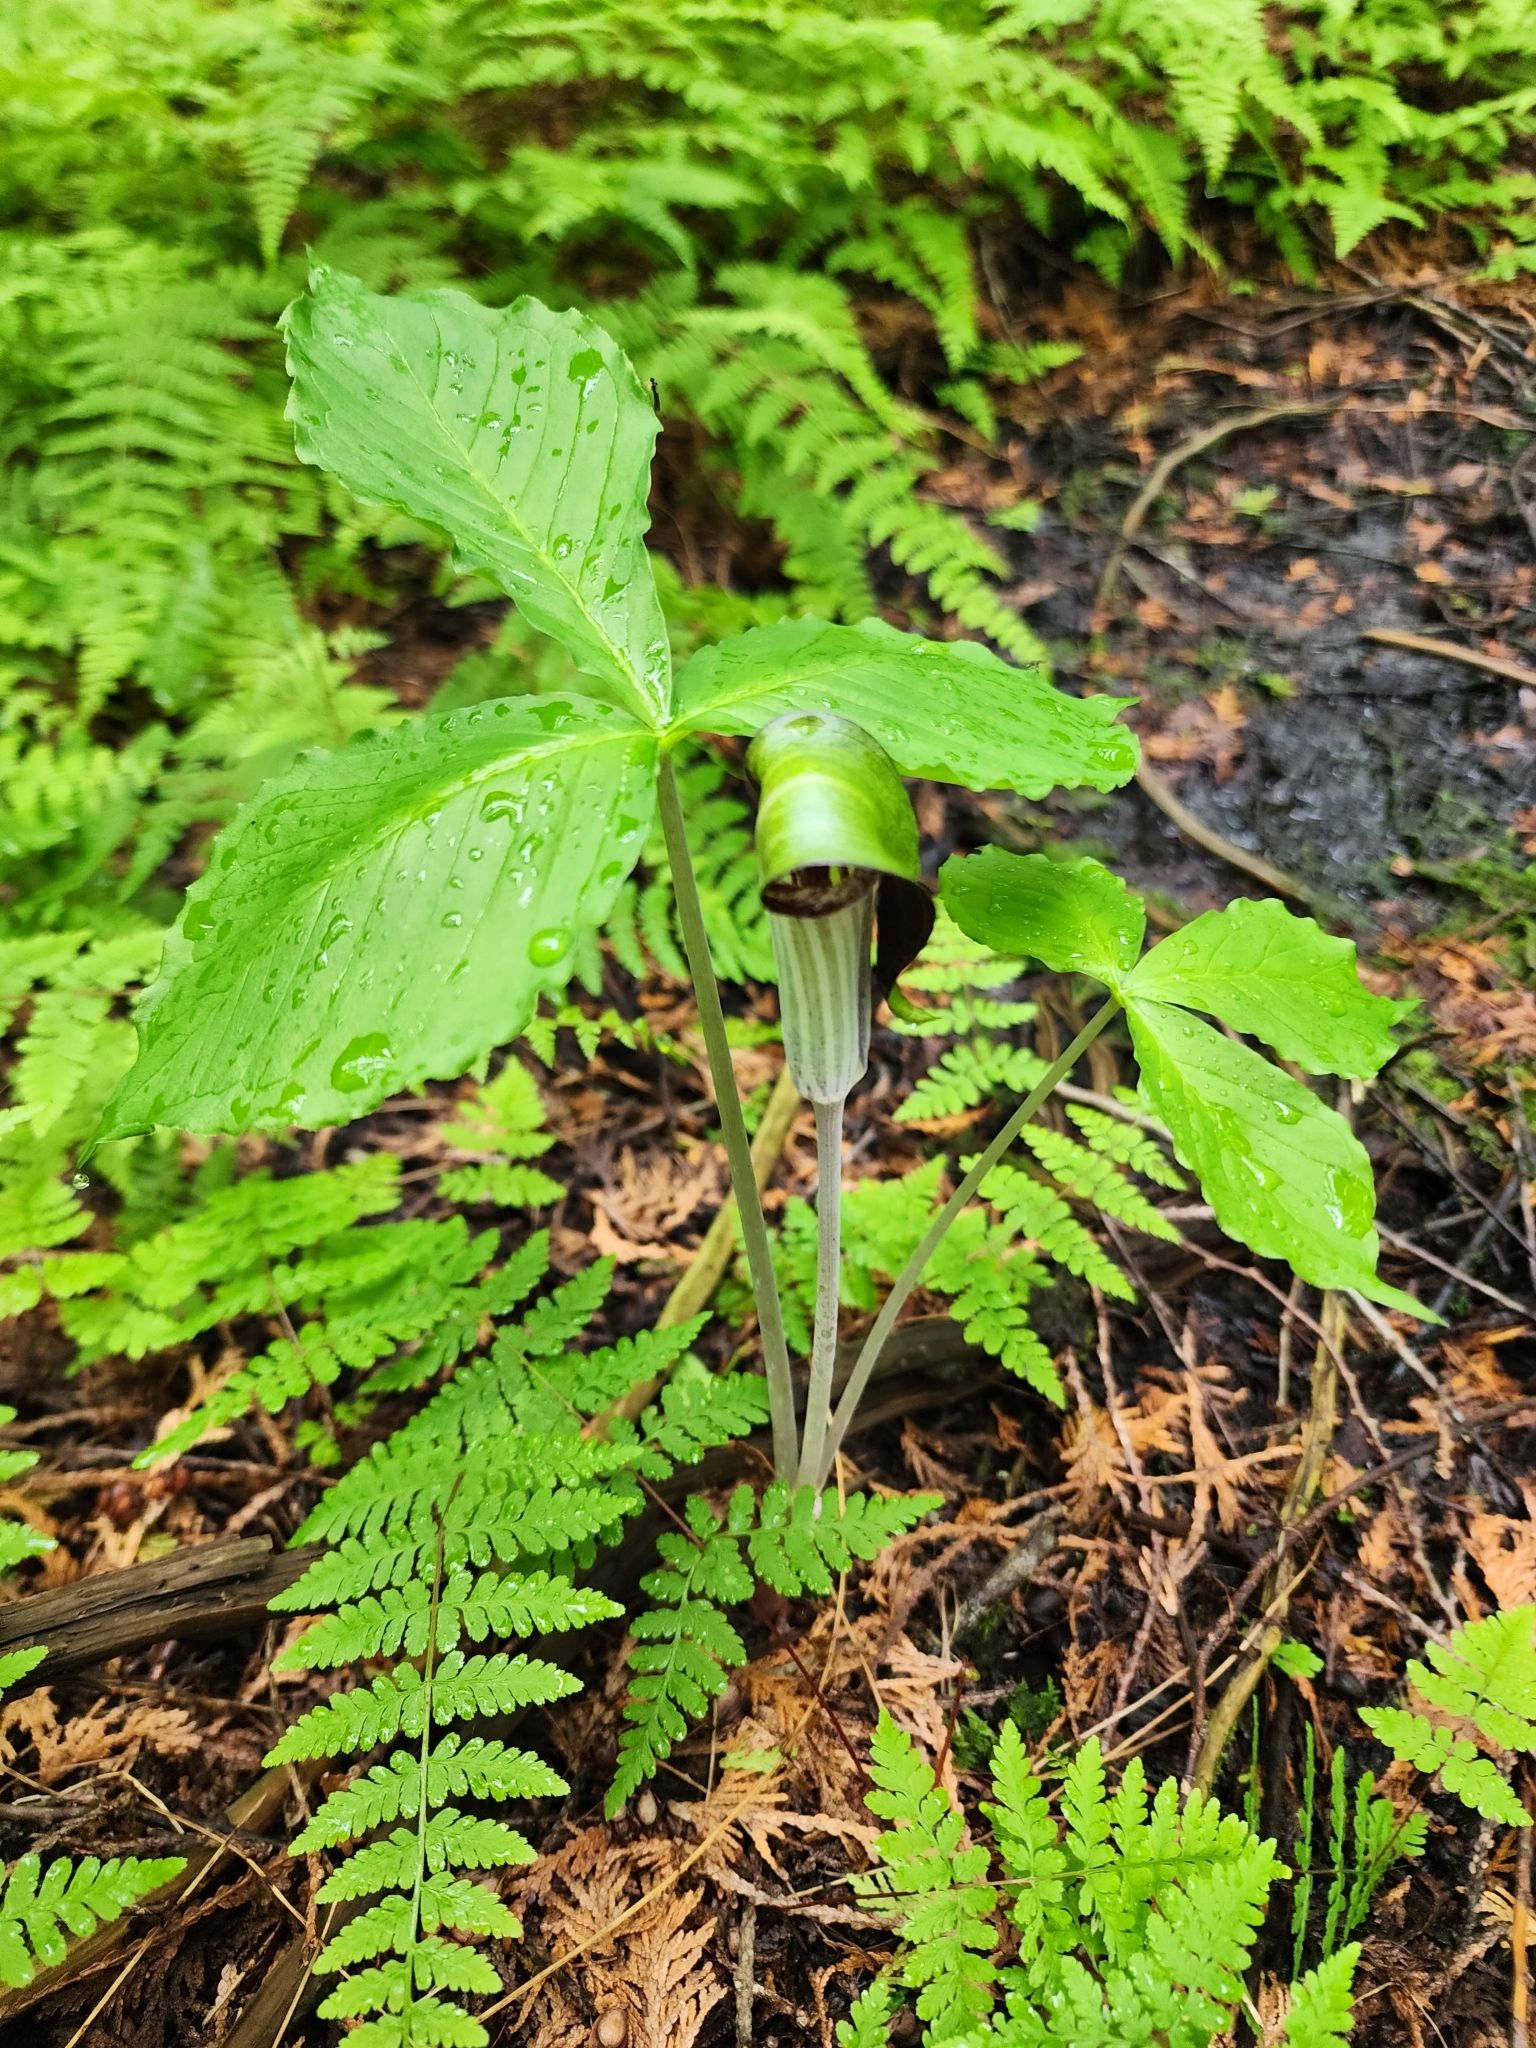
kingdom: Plantae
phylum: Tracheophyta
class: Liliopsida
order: Alismatales
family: Araceae
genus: Arisaema
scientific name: Arisaema triphyllum
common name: Jack-in-the-pulpit
